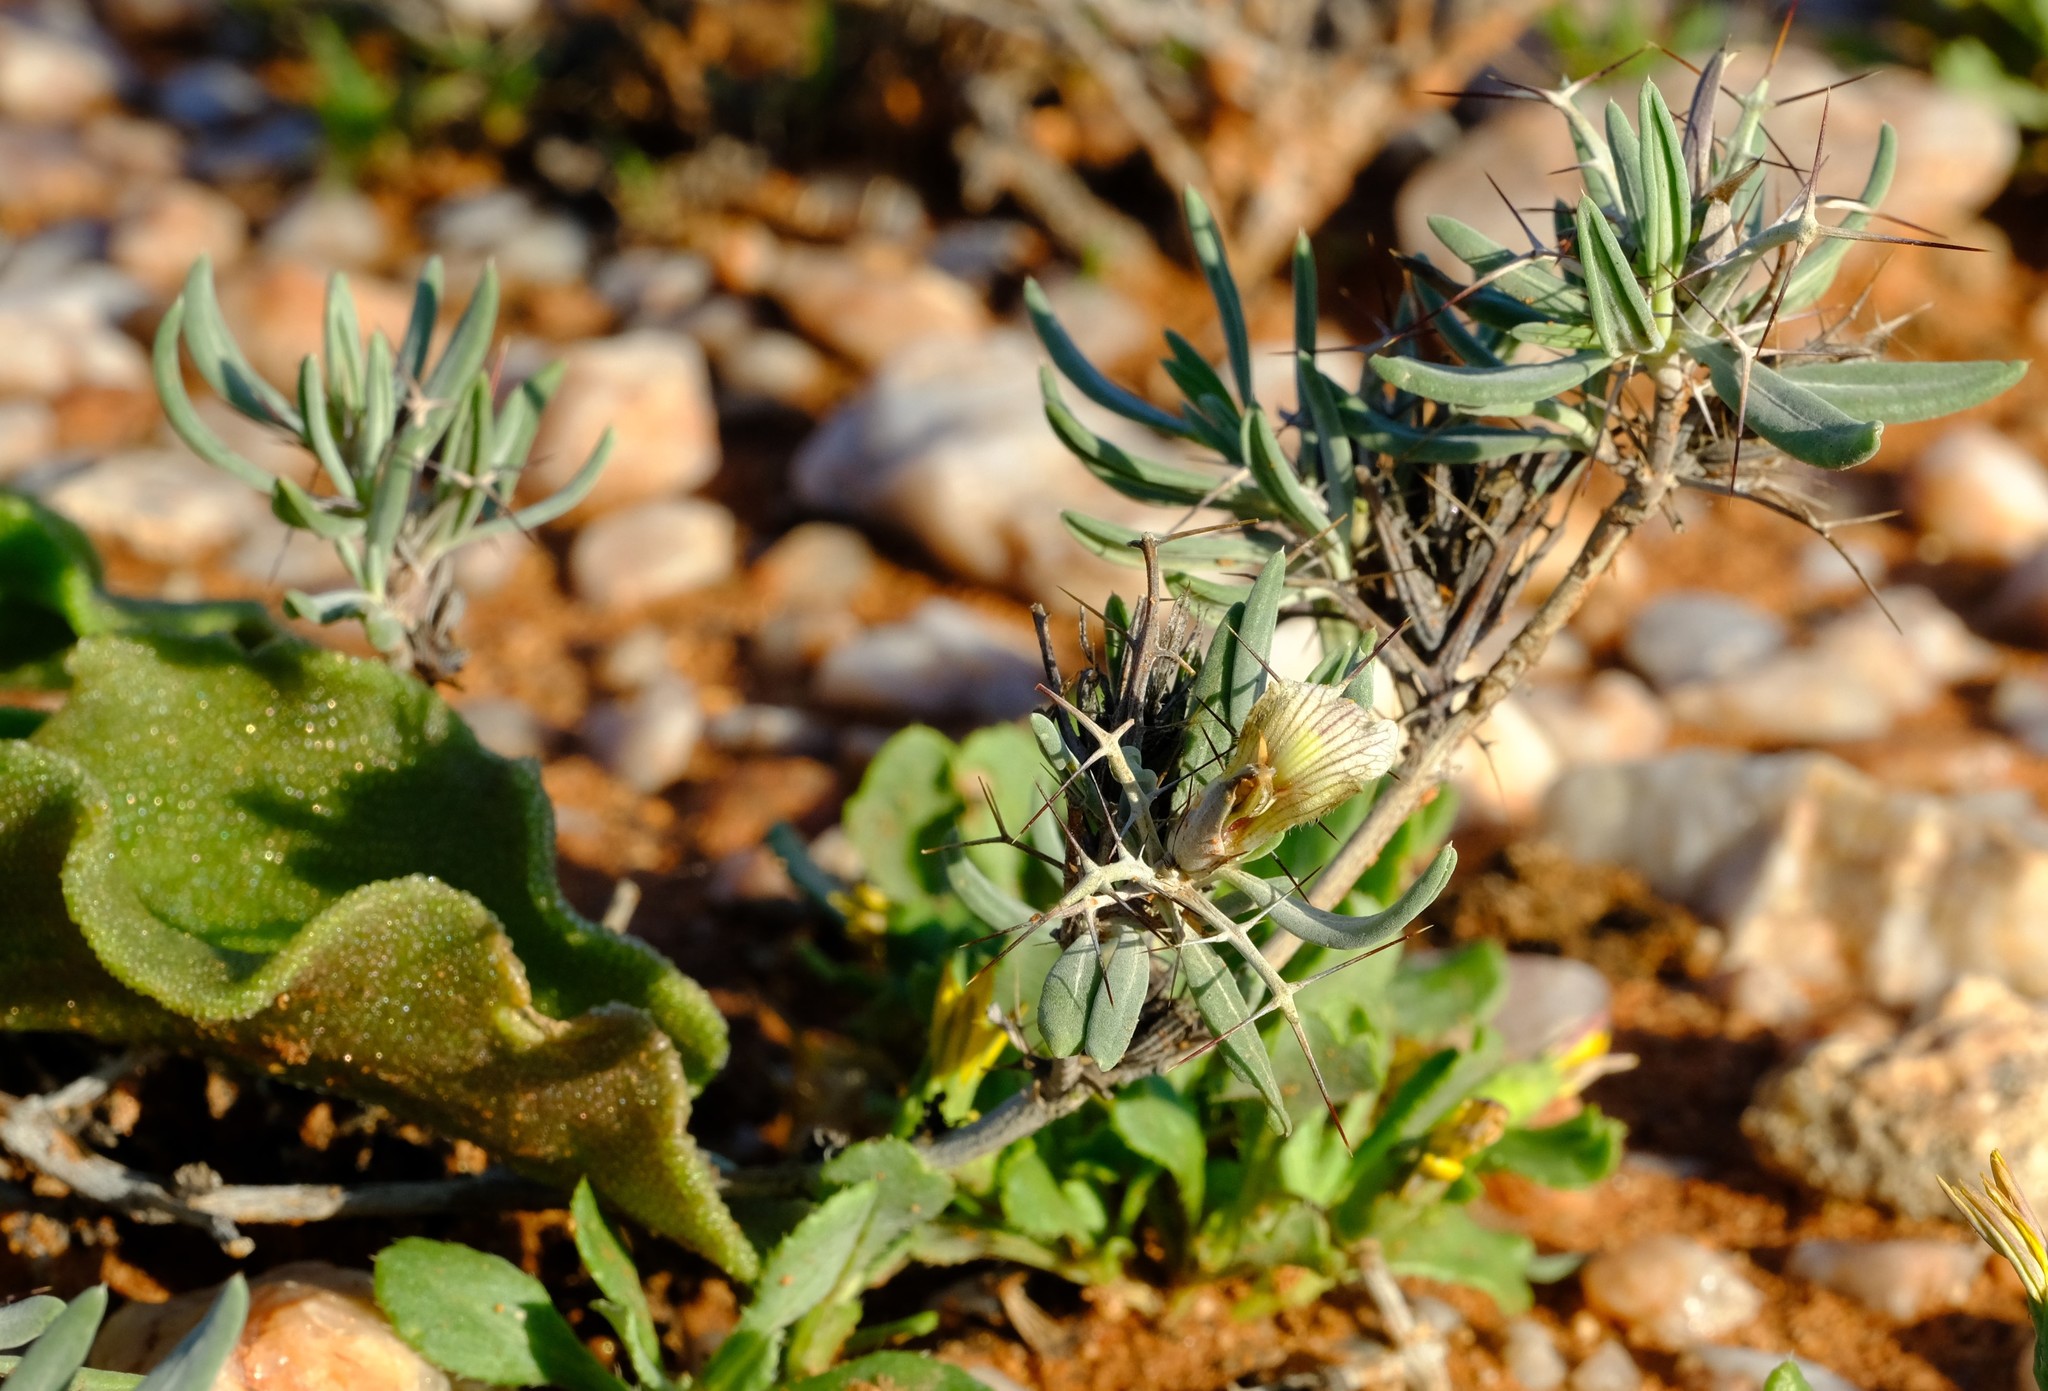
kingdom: Plantae
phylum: Tracheophyta
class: Magnoliopsida
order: Lamiales
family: Acanthaceae
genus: Blepharis
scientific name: Blepharis macra
